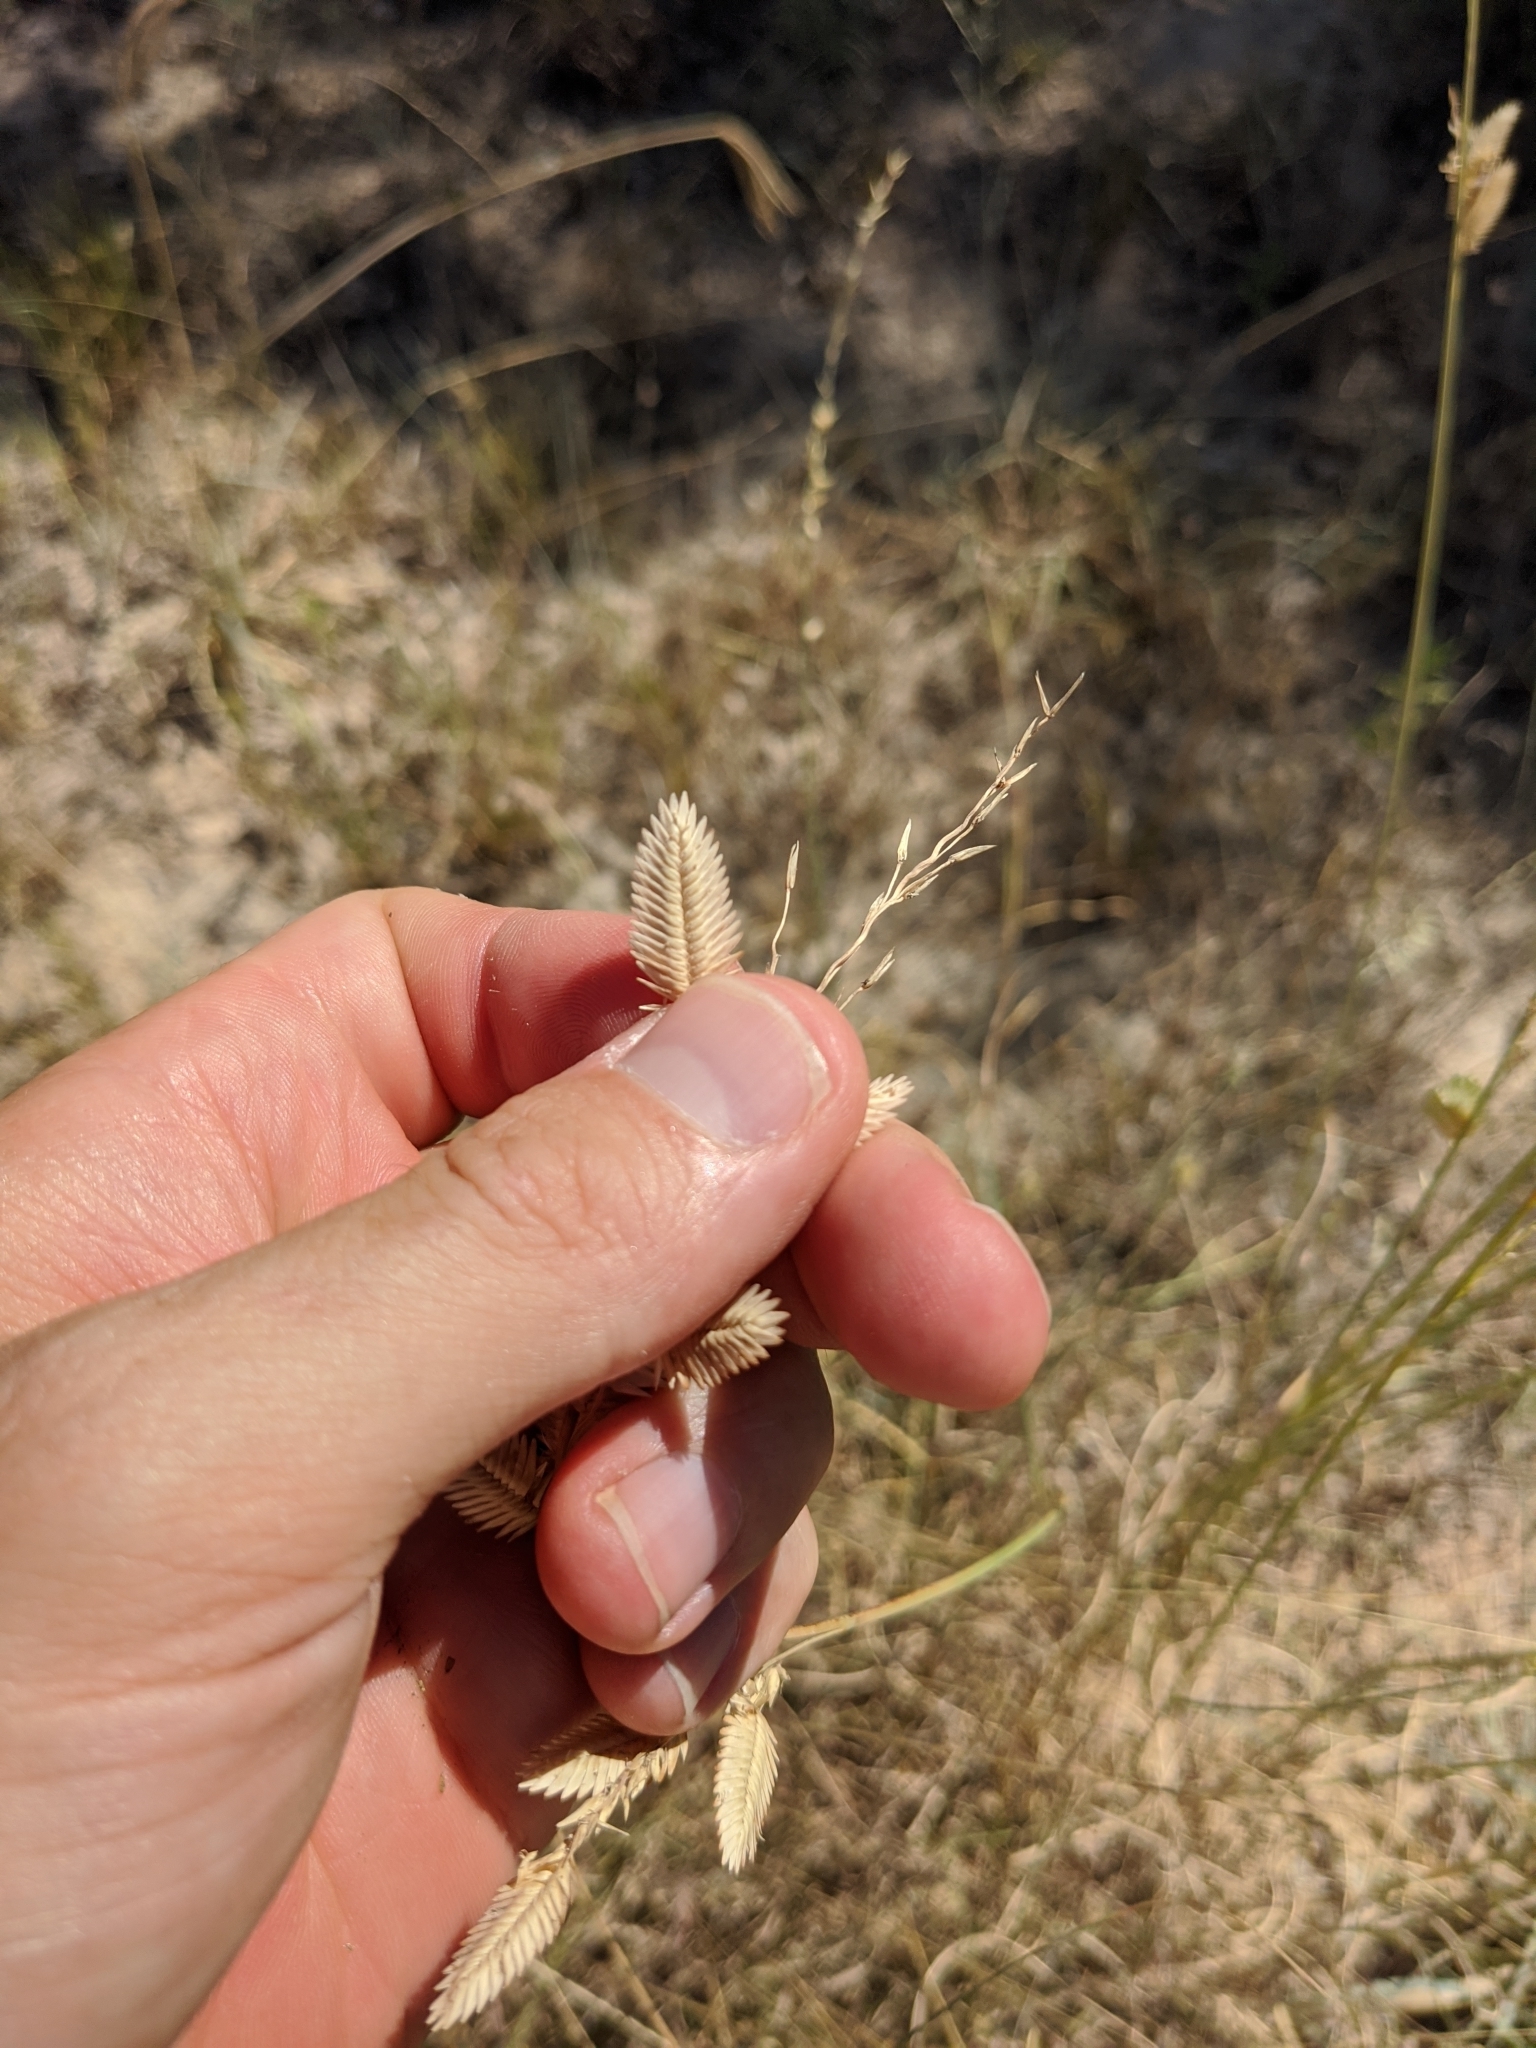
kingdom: Plantae
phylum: Tracheophyta
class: Liliopsida
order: Poales
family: Poaceae
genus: Eragrostis
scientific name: Eragrostis superba
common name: Wilman lovegrass
